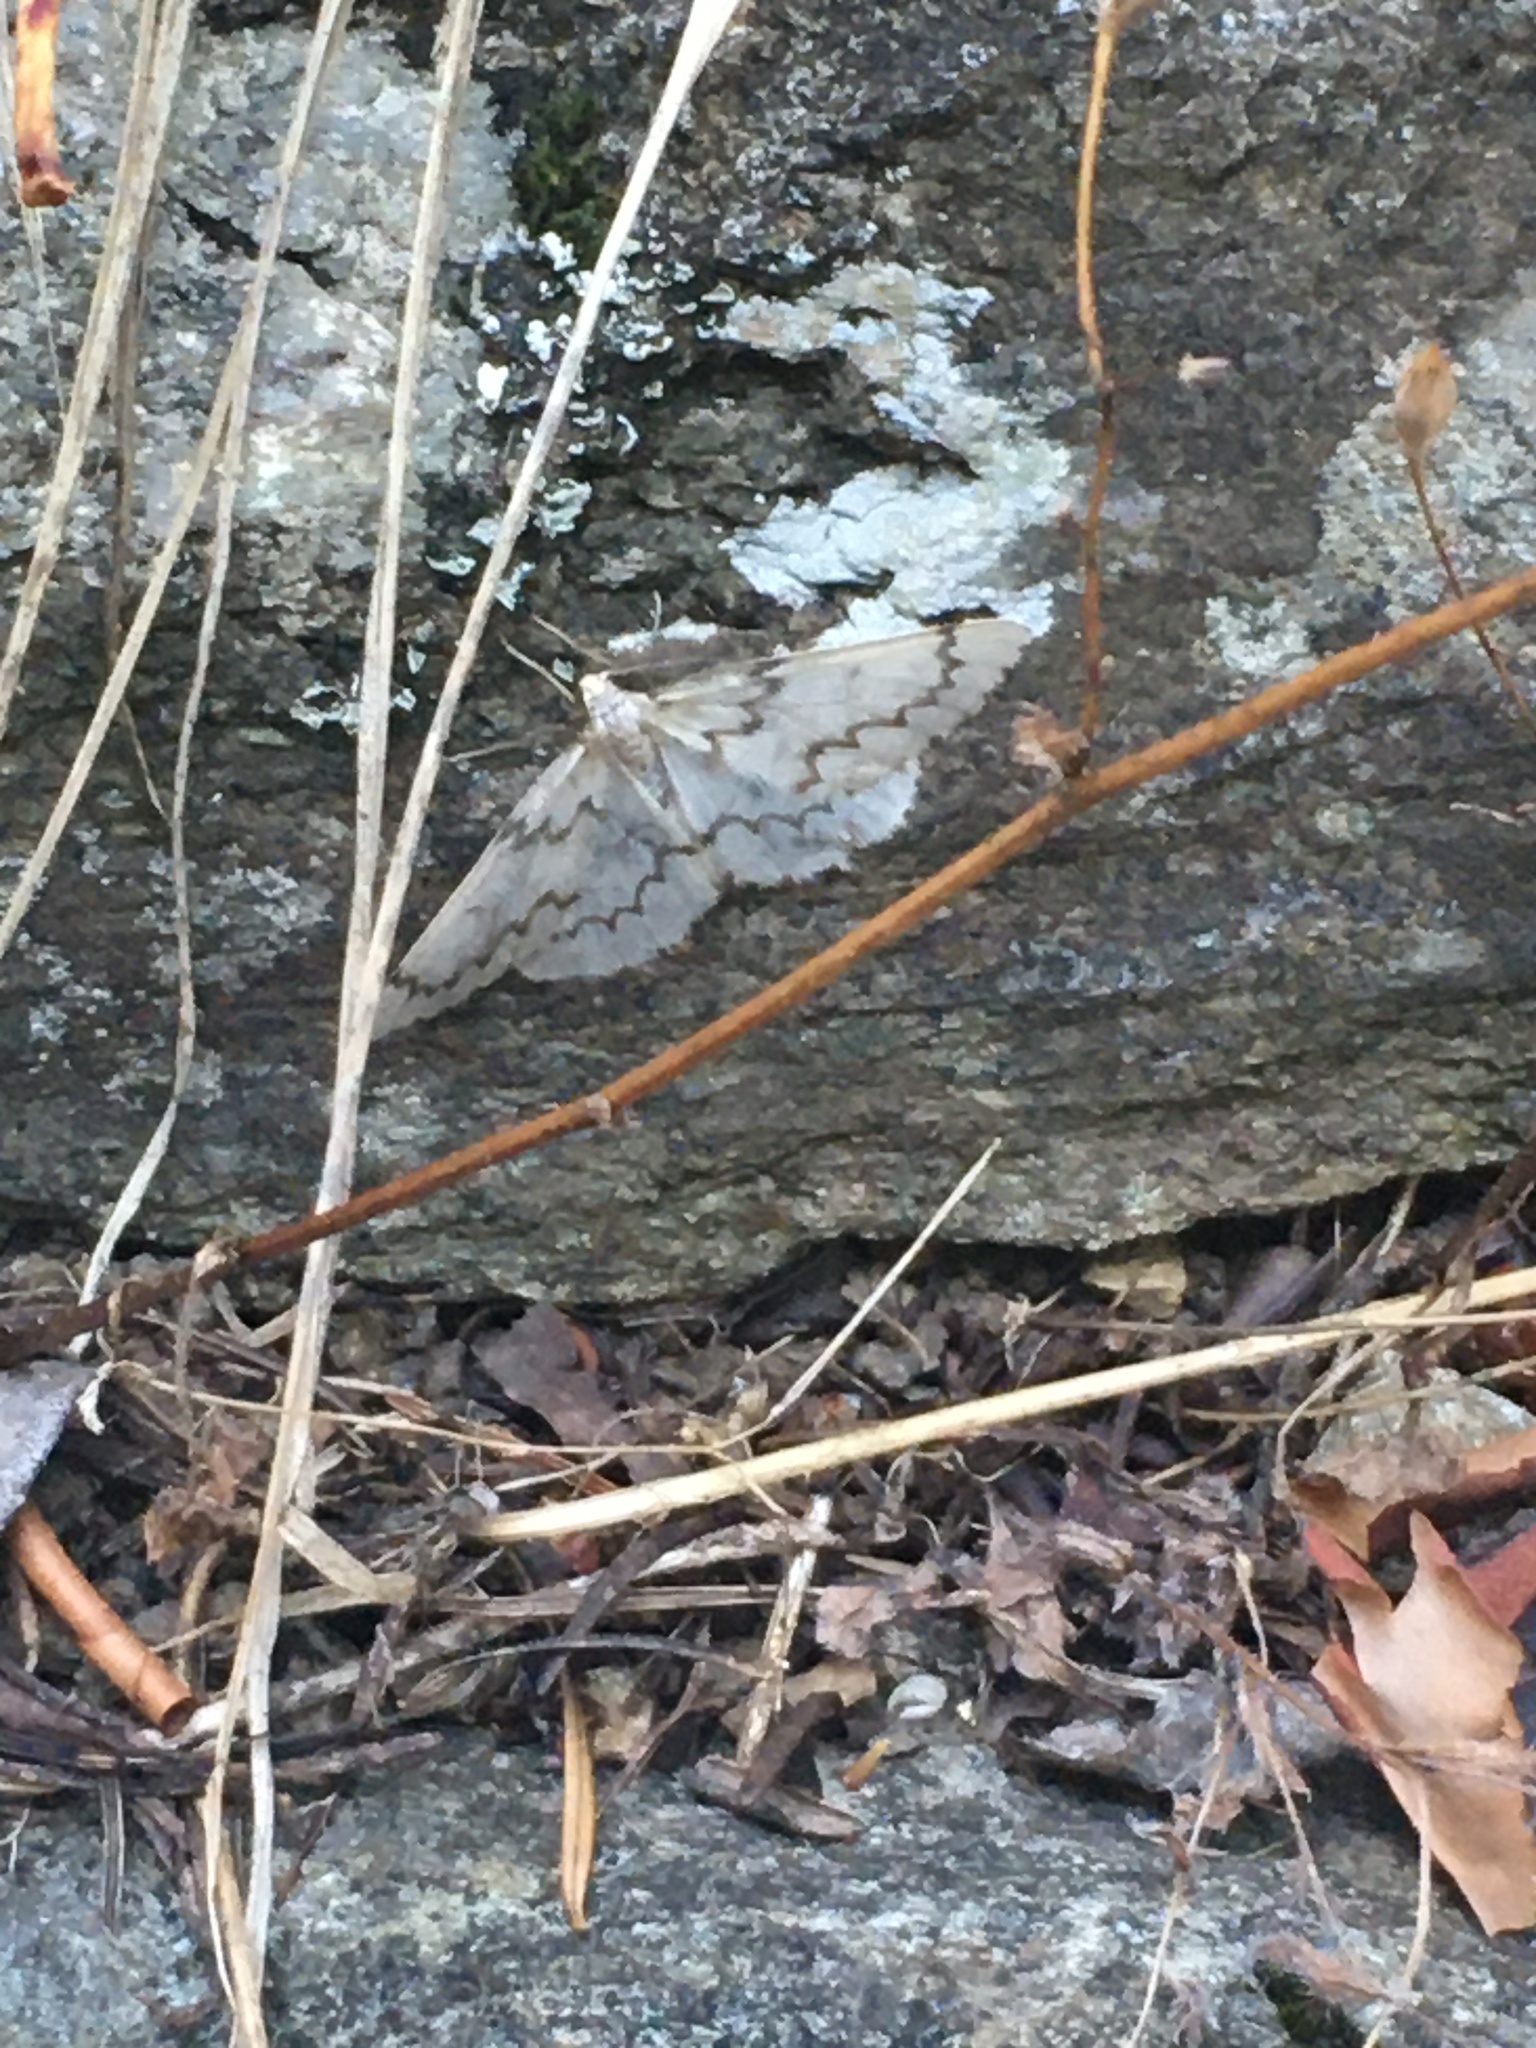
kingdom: Animalia
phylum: Arthropoda
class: Insecta
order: Lepidoptera
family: Geometridae
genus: Nepytia
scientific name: Nepytia phantasmaria
